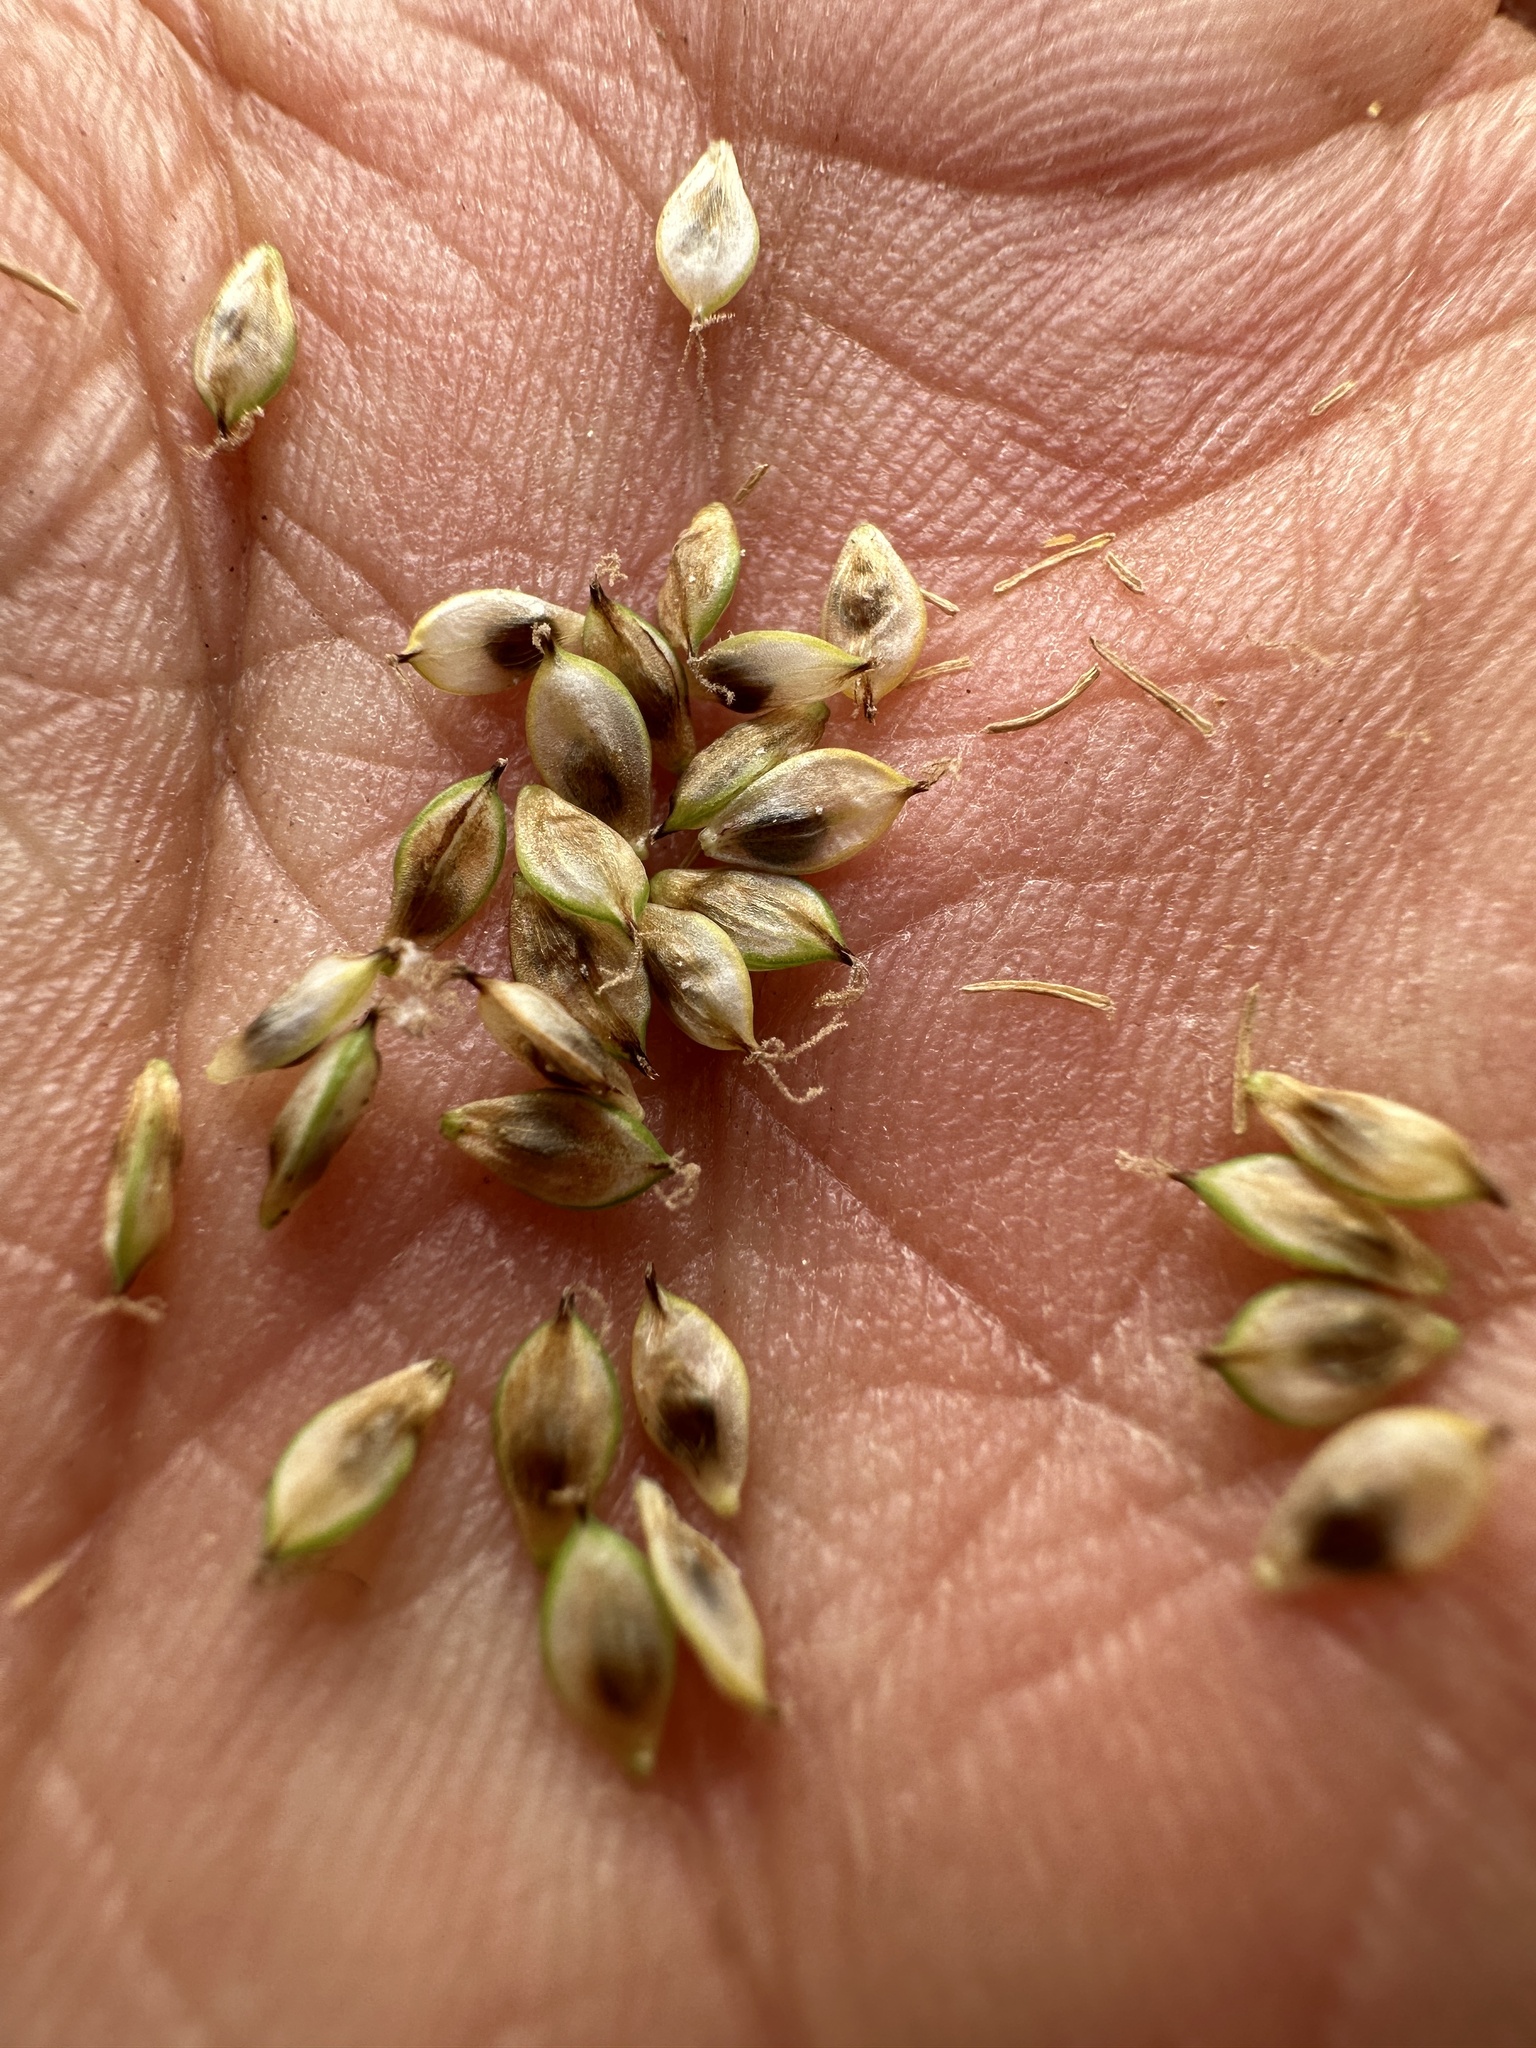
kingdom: Plantae
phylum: Tracheophyta
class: Liliopsida
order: Poales
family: Cyperaceae
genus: Carex
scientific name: Carex heteroneura
